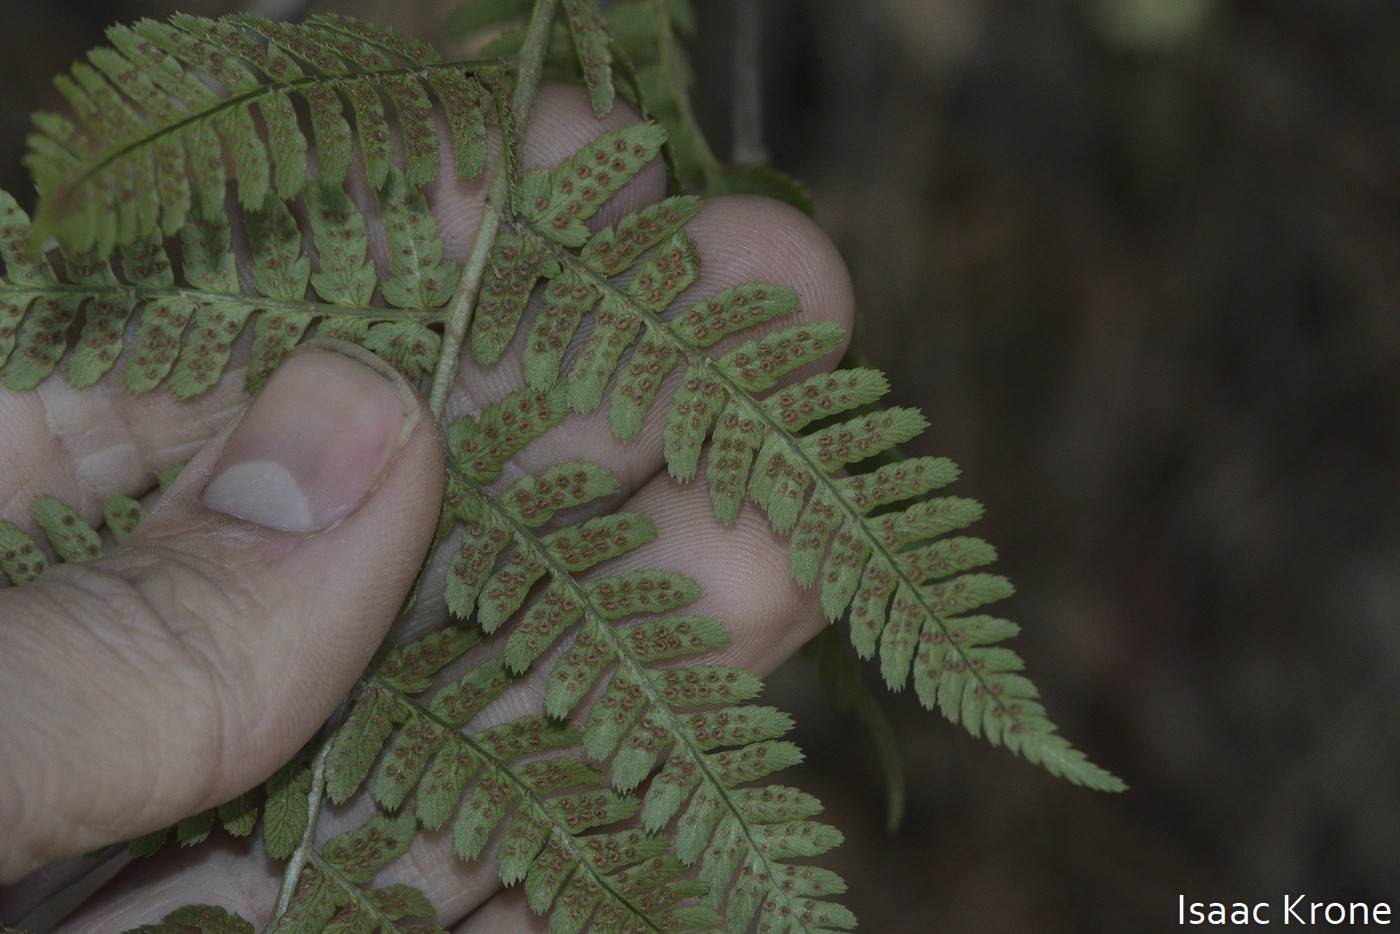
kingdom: Plantae
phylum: Tracheophyta
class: Polypodiopsida
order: Polypodiales
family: Dryopteridaceae
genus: Dryopteris
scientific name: Dryopteris arguta
